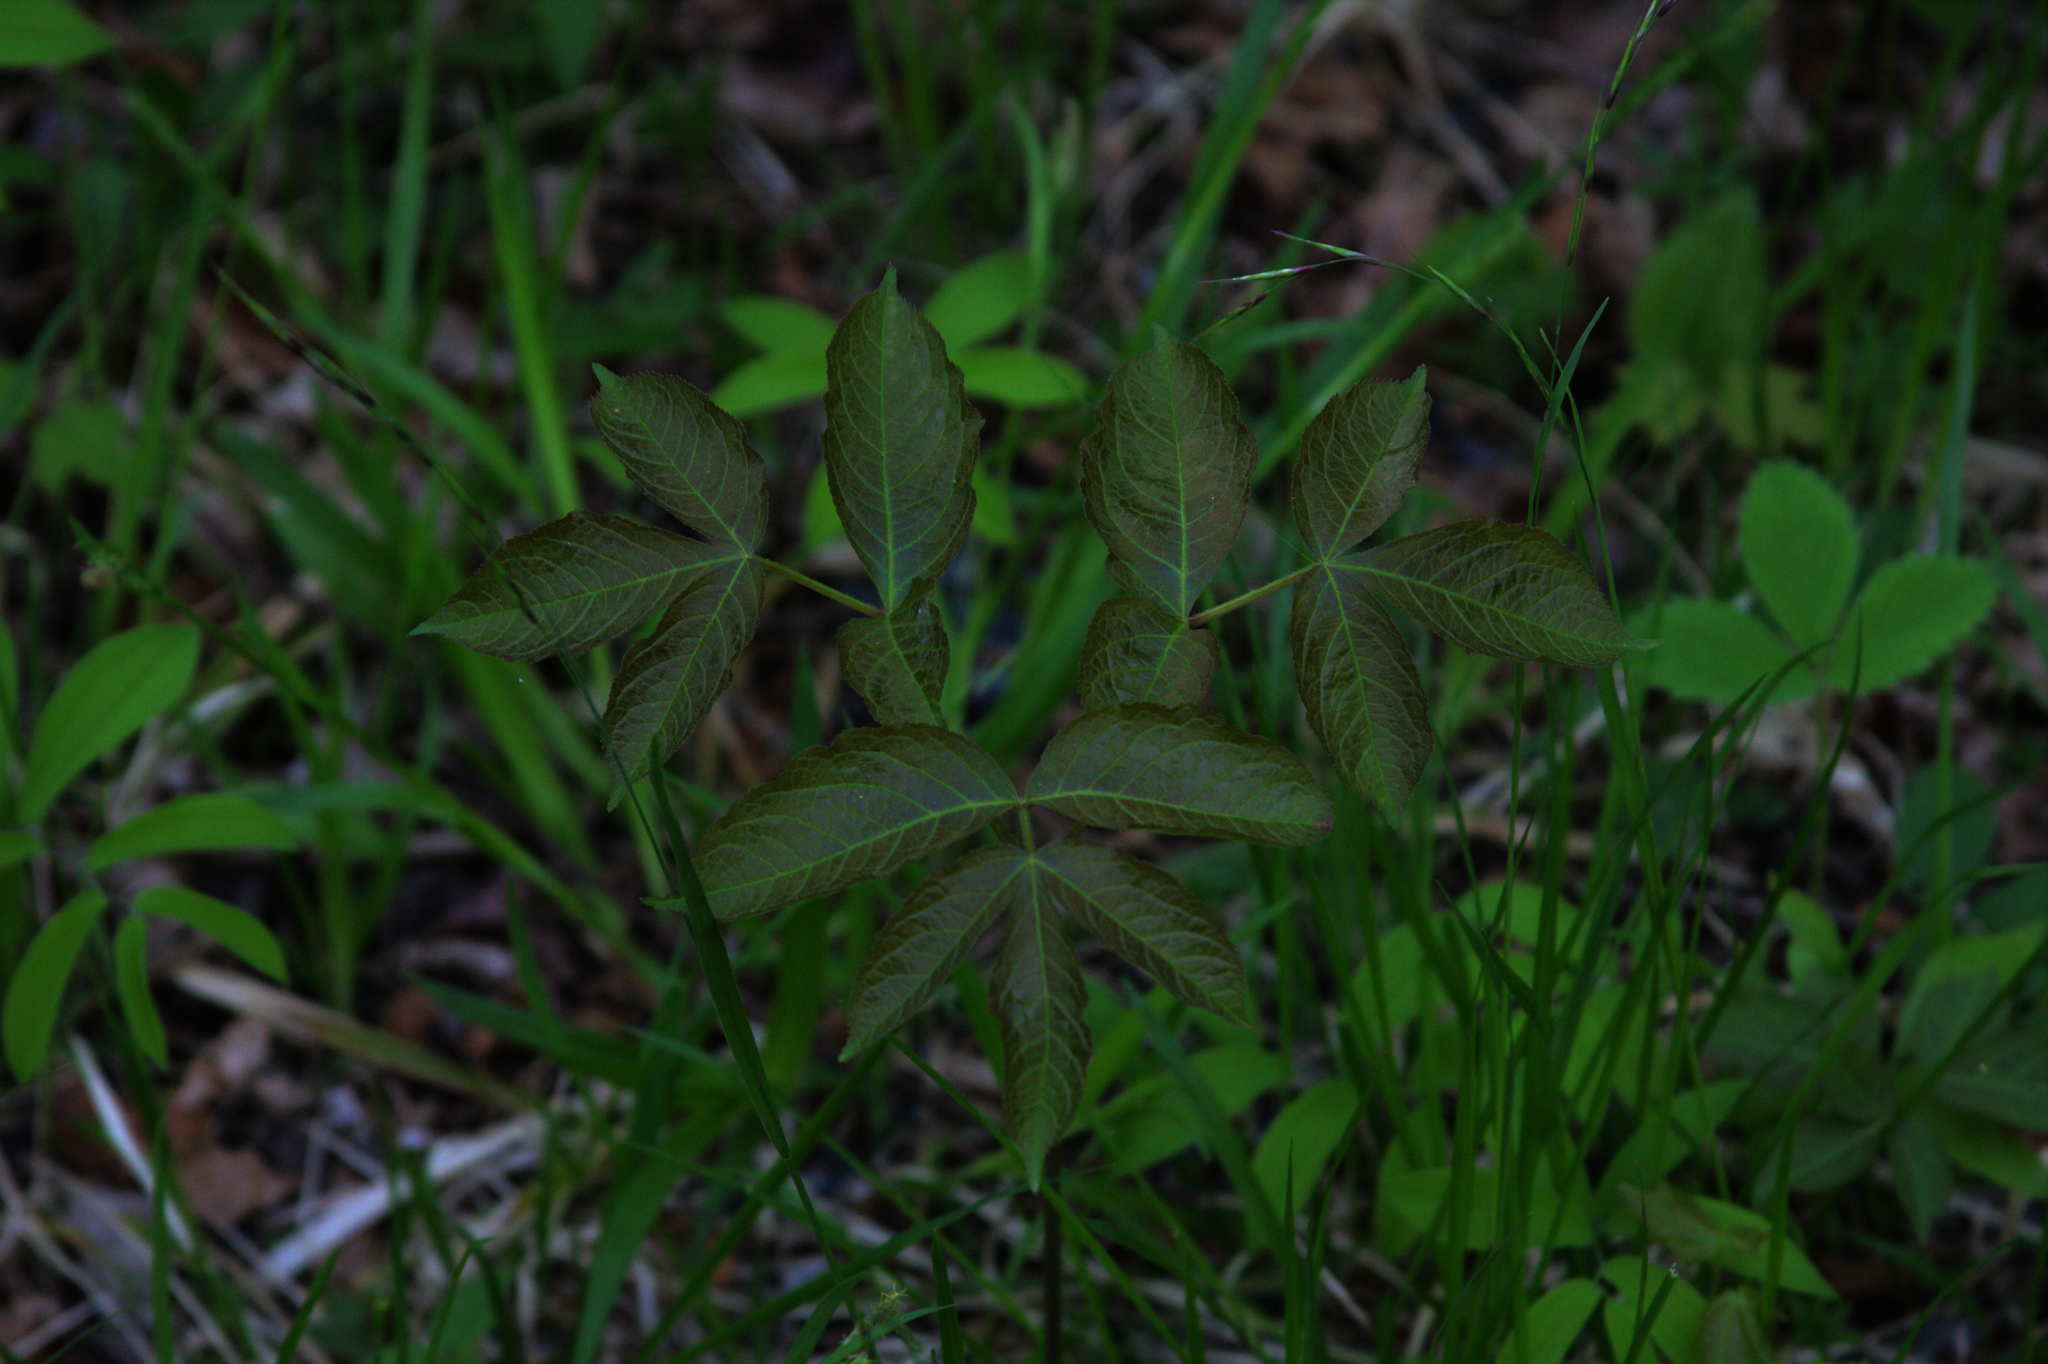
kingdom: Plantae
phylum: Tracheophyta
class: Magnoliopsida
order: Apiales
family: Araliaceae
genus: Aralia
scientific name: Aralia nudicaulis
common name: Wild sarsaparilla
